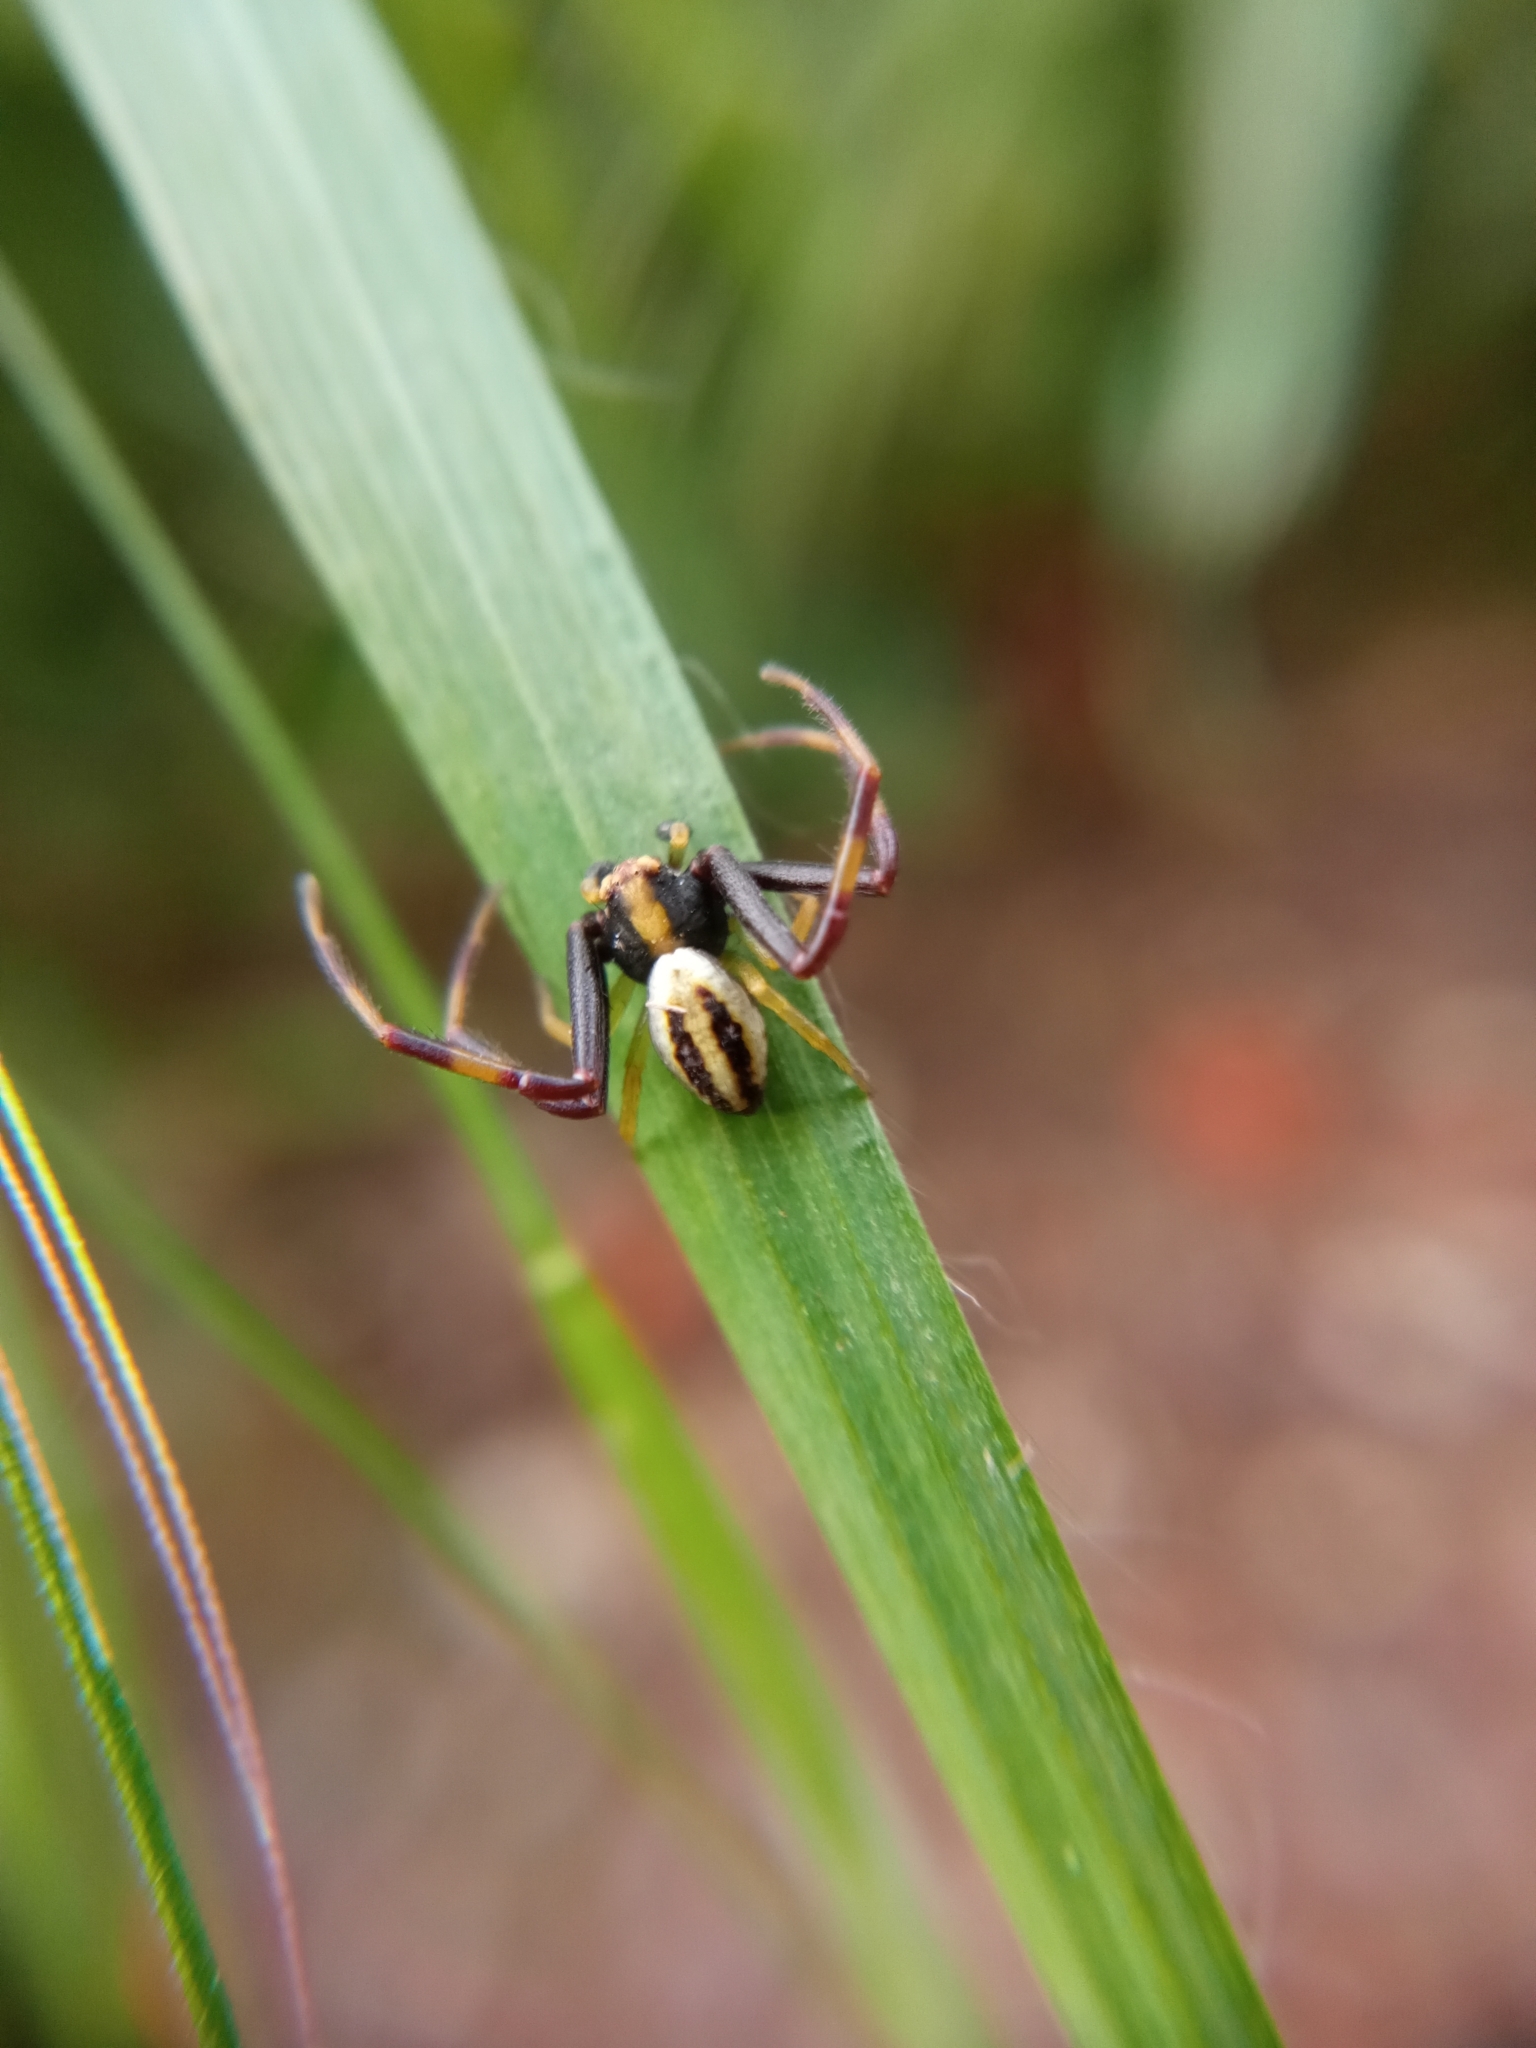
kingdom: Animalia
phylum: Arthropoda
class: Arachnida
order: Araneae
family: Thomisidae
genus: Misumena
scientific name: Misumena vatia
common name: Goldenrod crab spider
